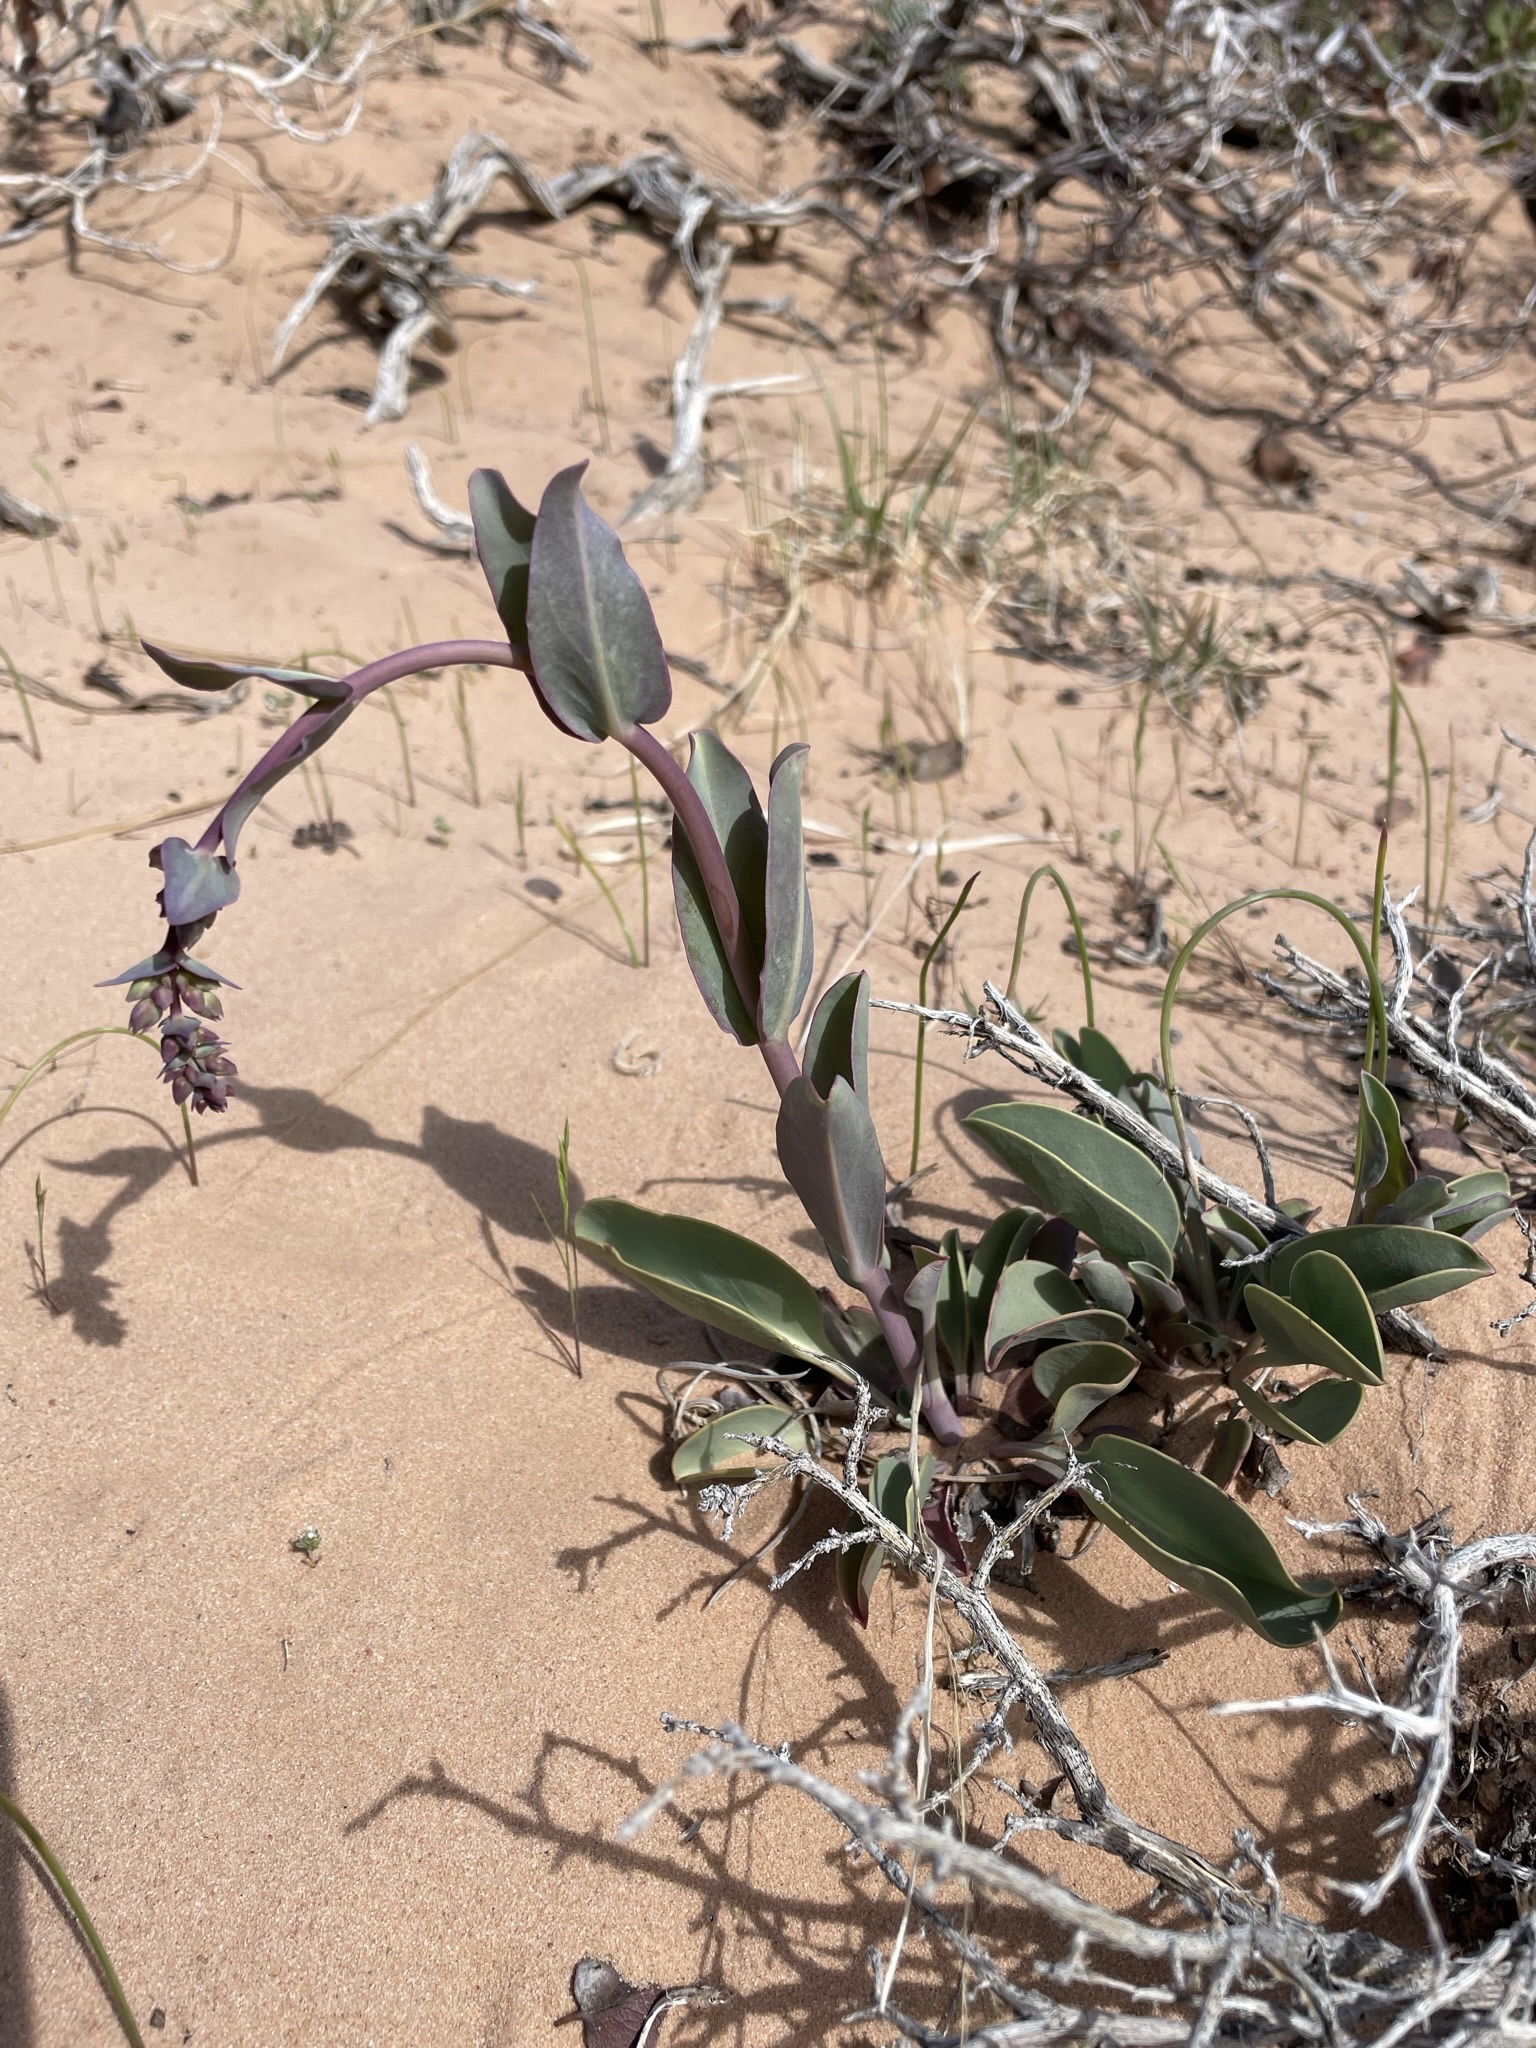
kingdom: Plantae
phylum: Tracheophyta
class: Magnoliopsida
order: Lamiales
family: Plantaginaceae
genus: Penstemon
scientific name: Penstemon pachyphyllus
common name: Thick-leaf penstemon
